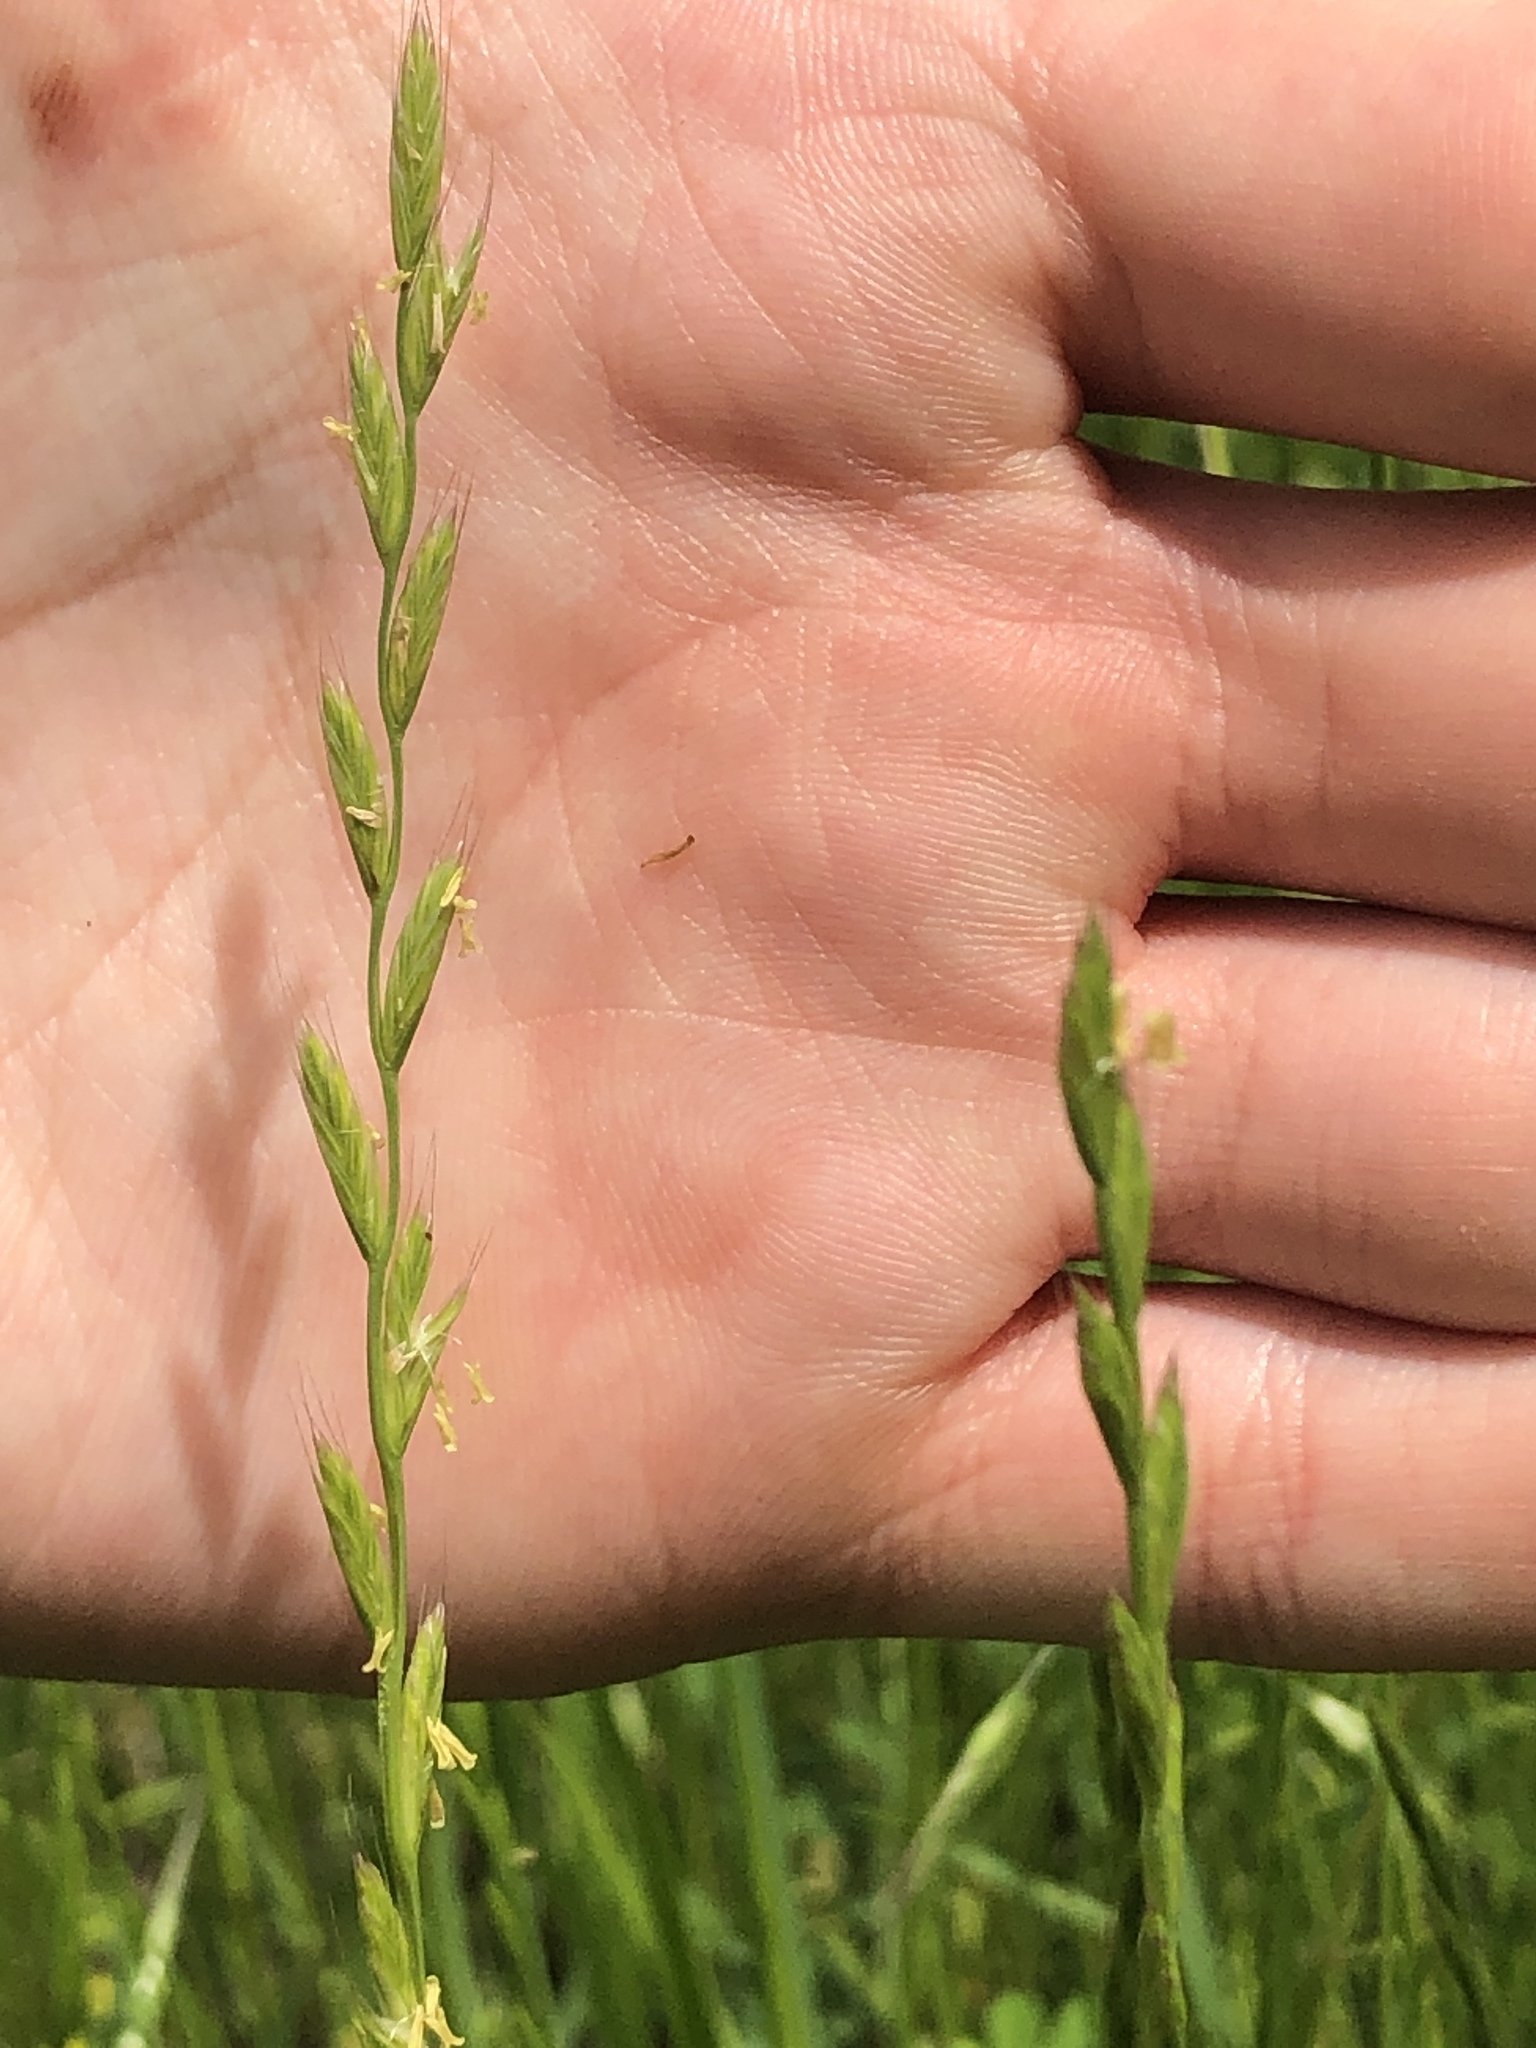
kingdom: Plantae
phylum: Tracheophyta
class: Liliopsida
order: Poales
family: Poaceae
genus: Lolium
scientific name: Lolium perenne
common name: Perennial ryegrass
